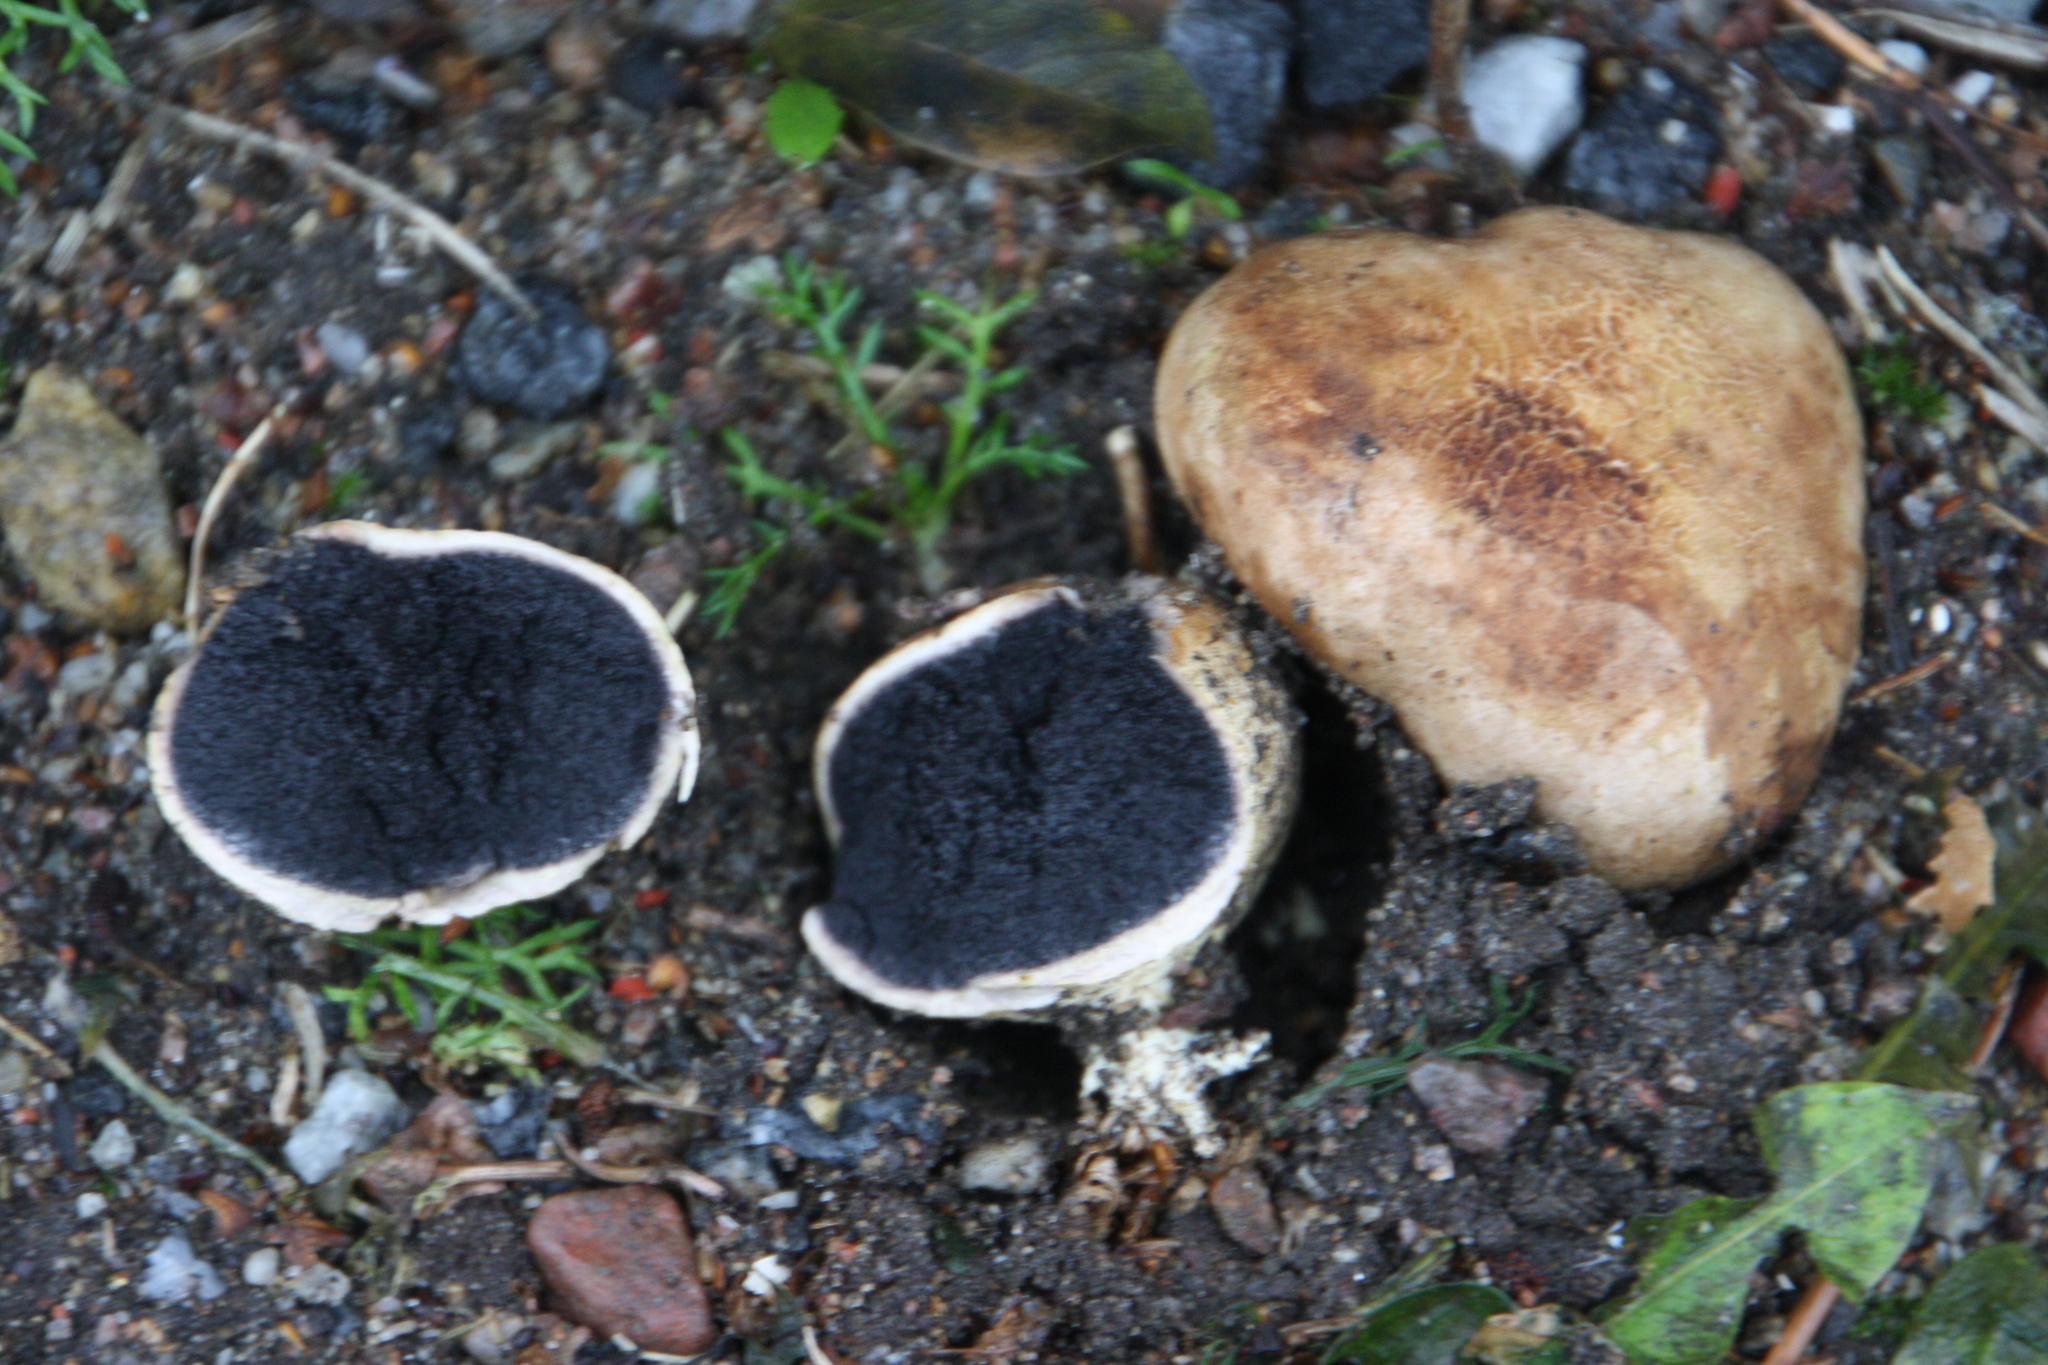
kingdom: Fungi
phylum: Basidiomycota
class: Agaricomycetes
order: Boletales
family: Sclerodermataceae
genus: Scleroderma
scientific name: Scleroderma citrinum
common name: Common earthball
